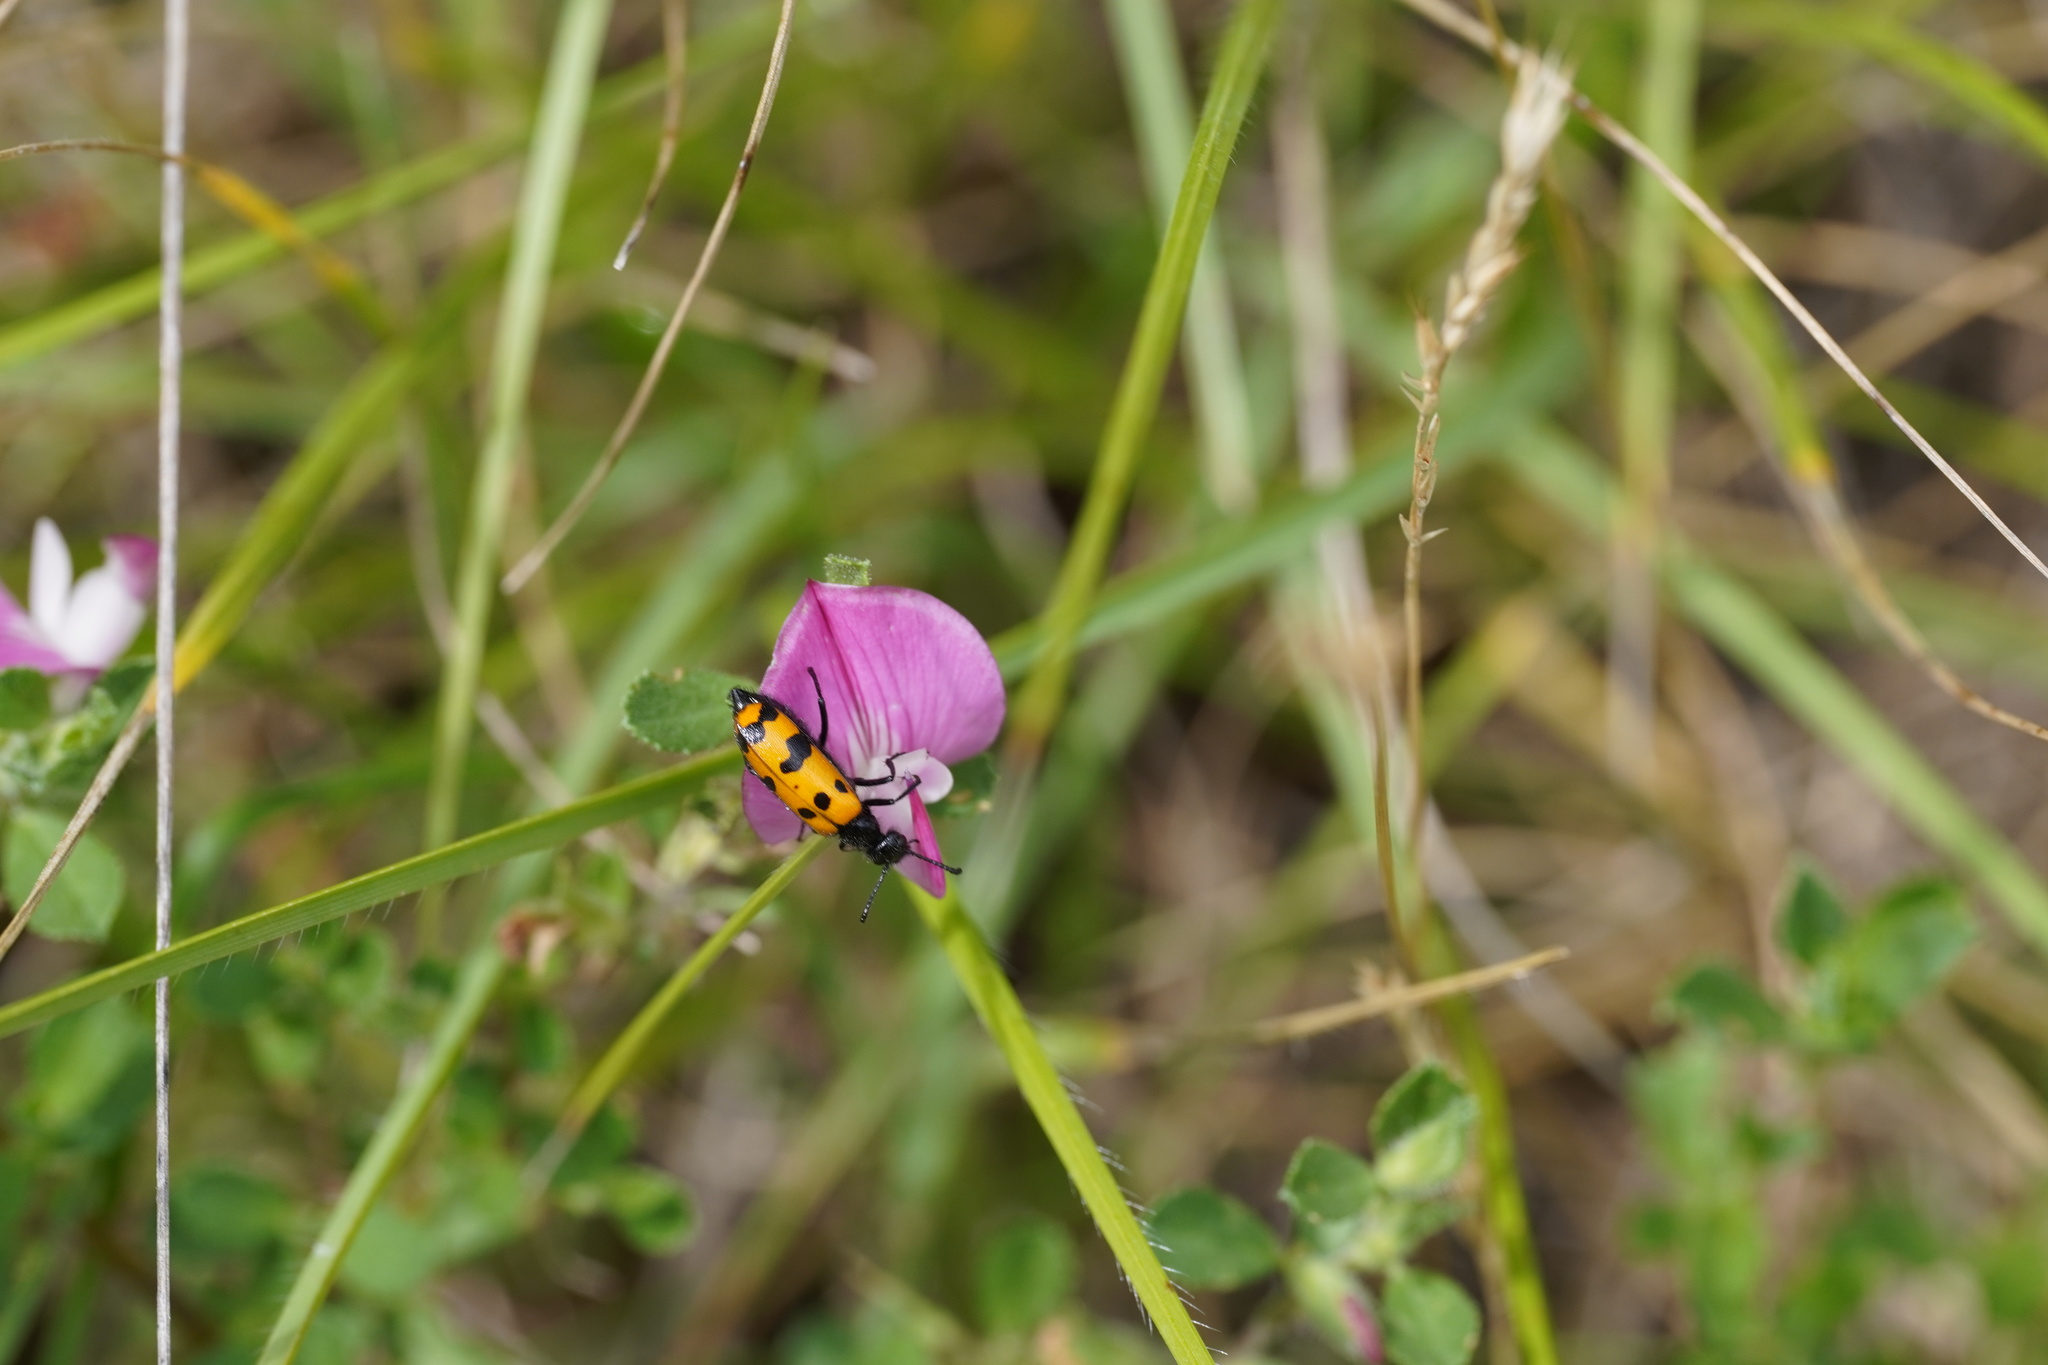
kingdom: Animalia
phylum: Arthropoda
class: Insecta
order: Coleoptera
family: Meloidae
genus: Mylabris
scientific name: Mylabris connata
